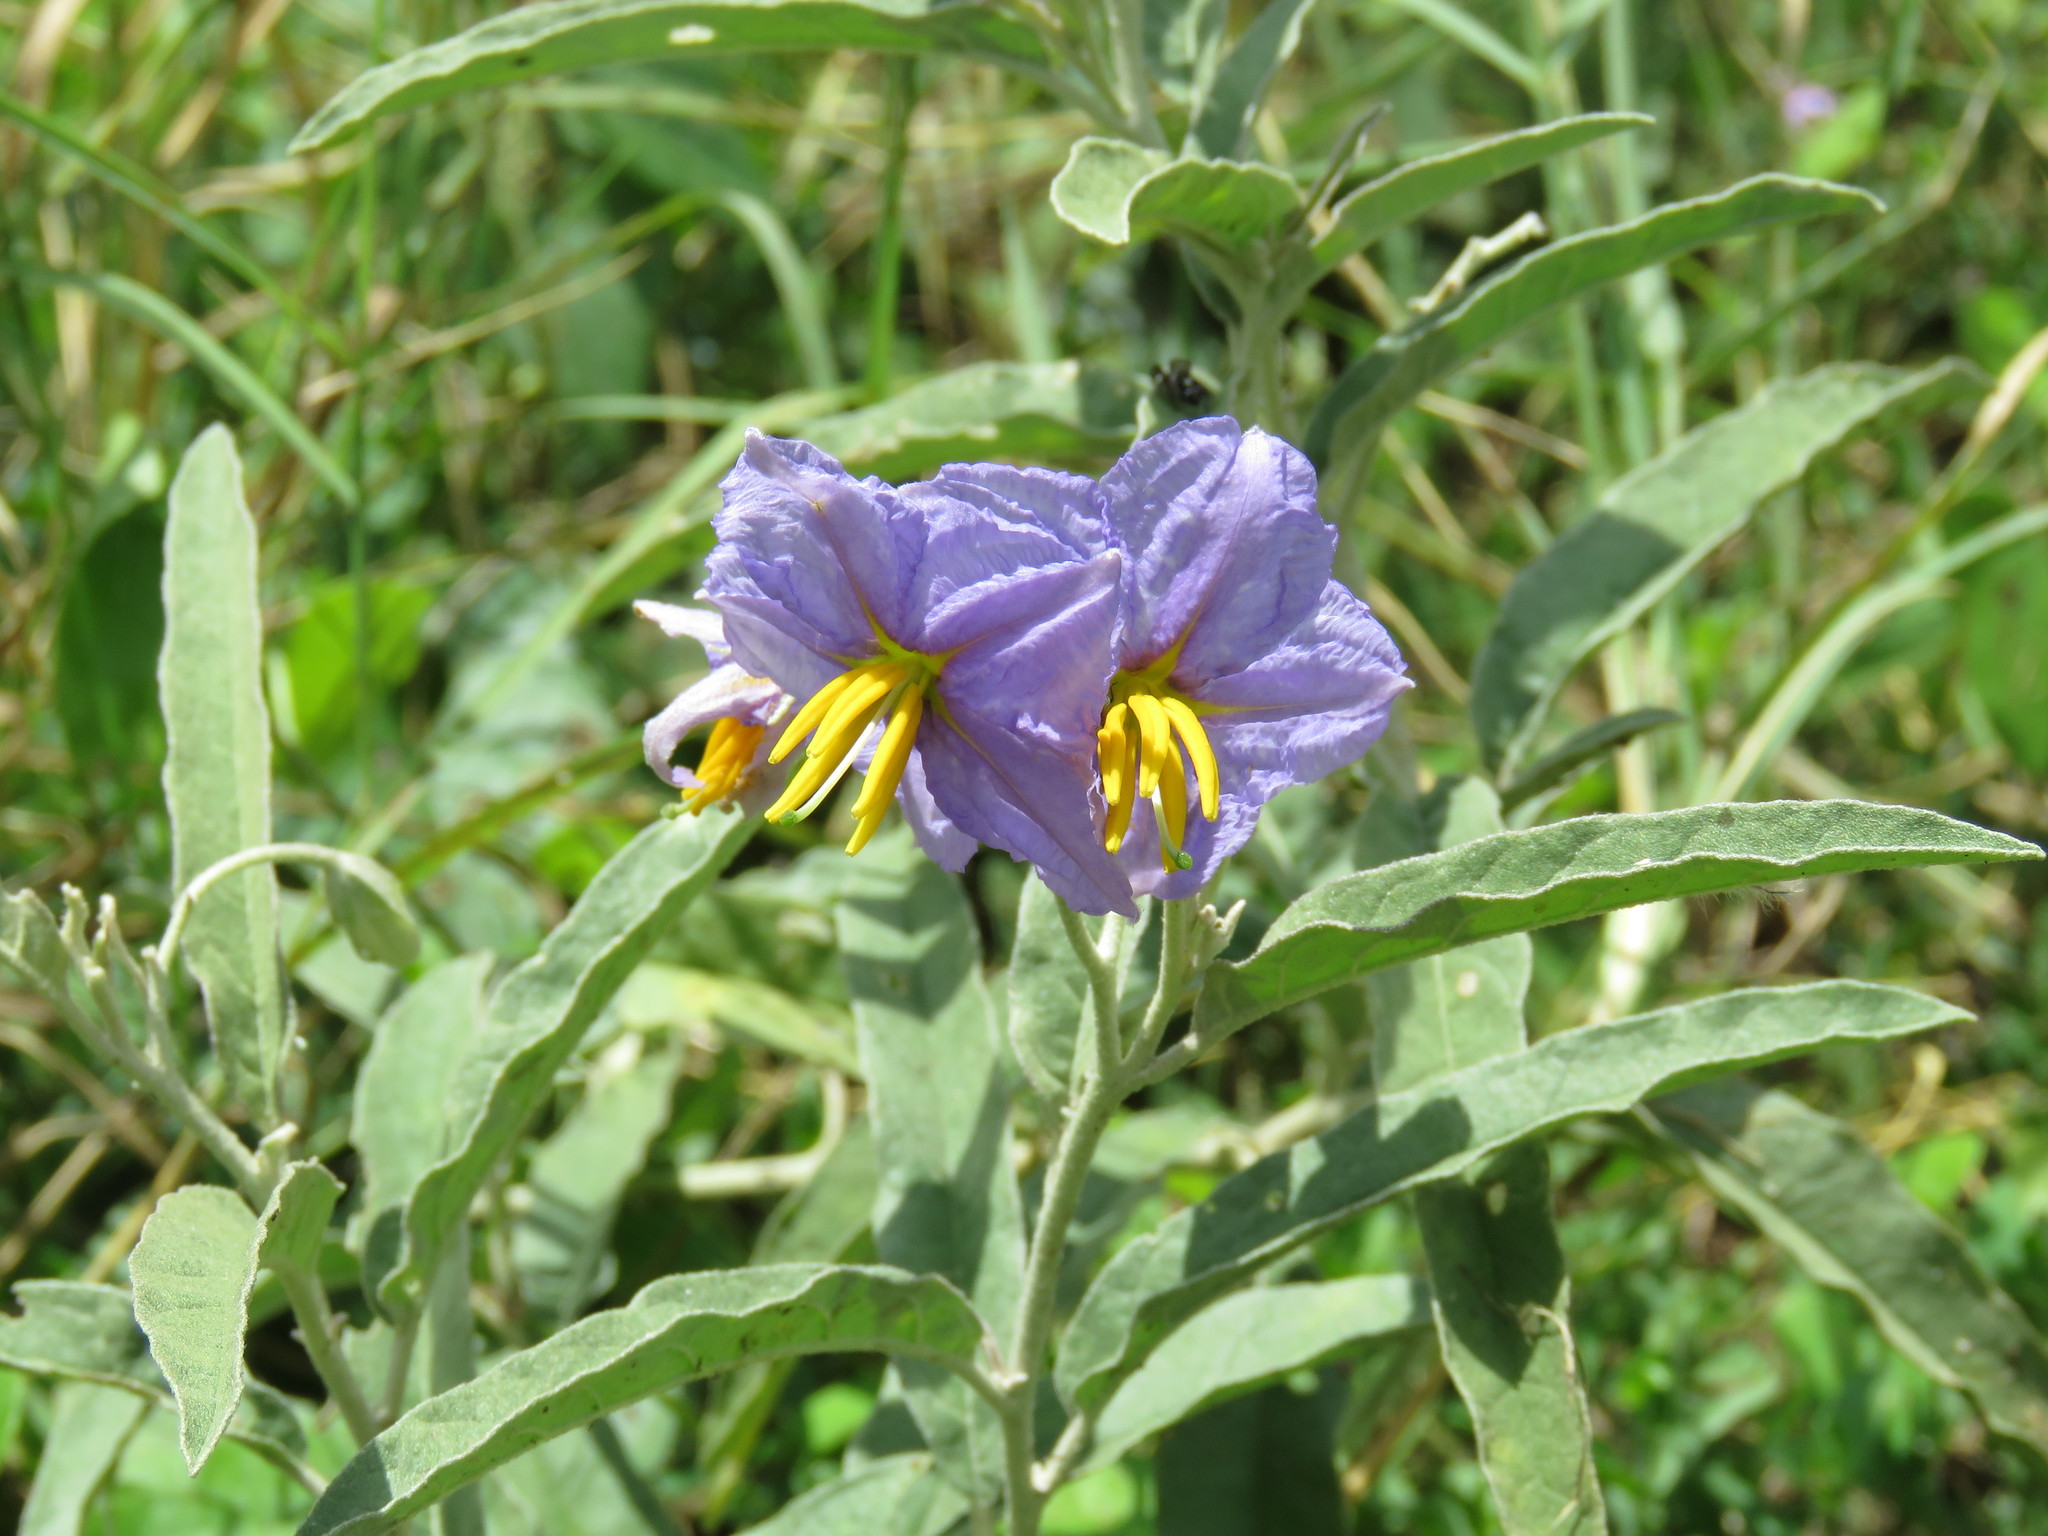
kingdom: Plantae
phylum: Tracheophyta
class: Magnoliopsida
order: Solanales
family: Solanaceae
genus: Solanum
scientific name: Solanum elaeagnifolium
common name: Silverleaf nightshade
